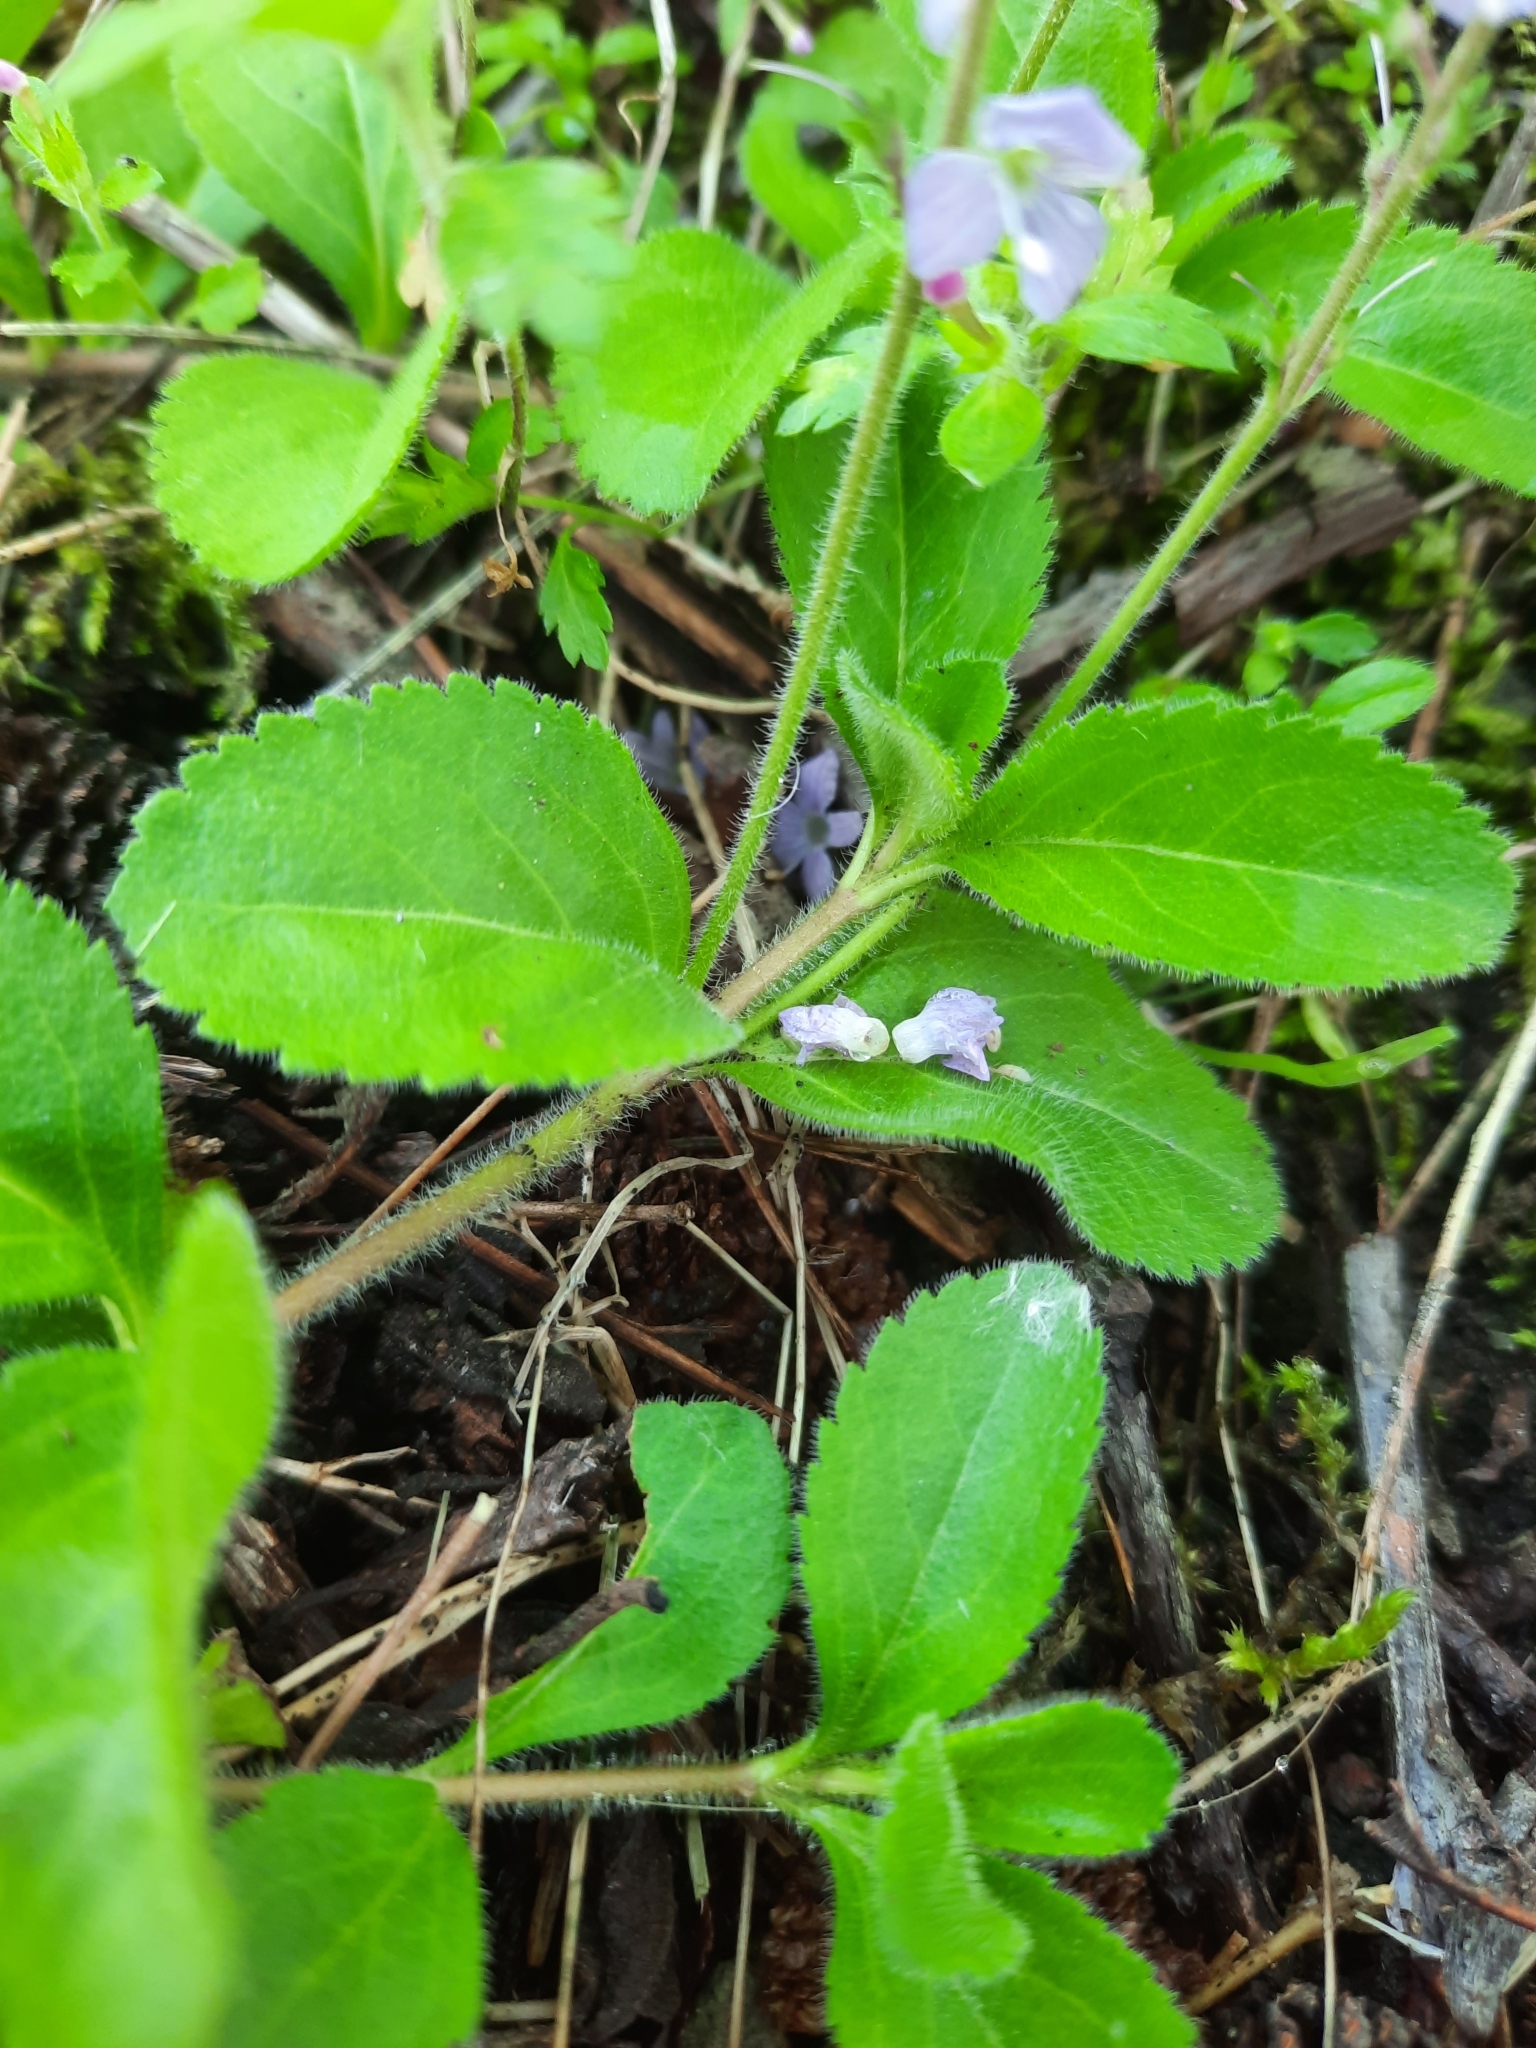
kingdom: Plantae
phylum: Tracheophyta
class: Magnoliopsida
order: Lamiales
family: Plantaginaceae
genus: Veronica
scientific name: Veronica officinalis
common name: Common speedwell
